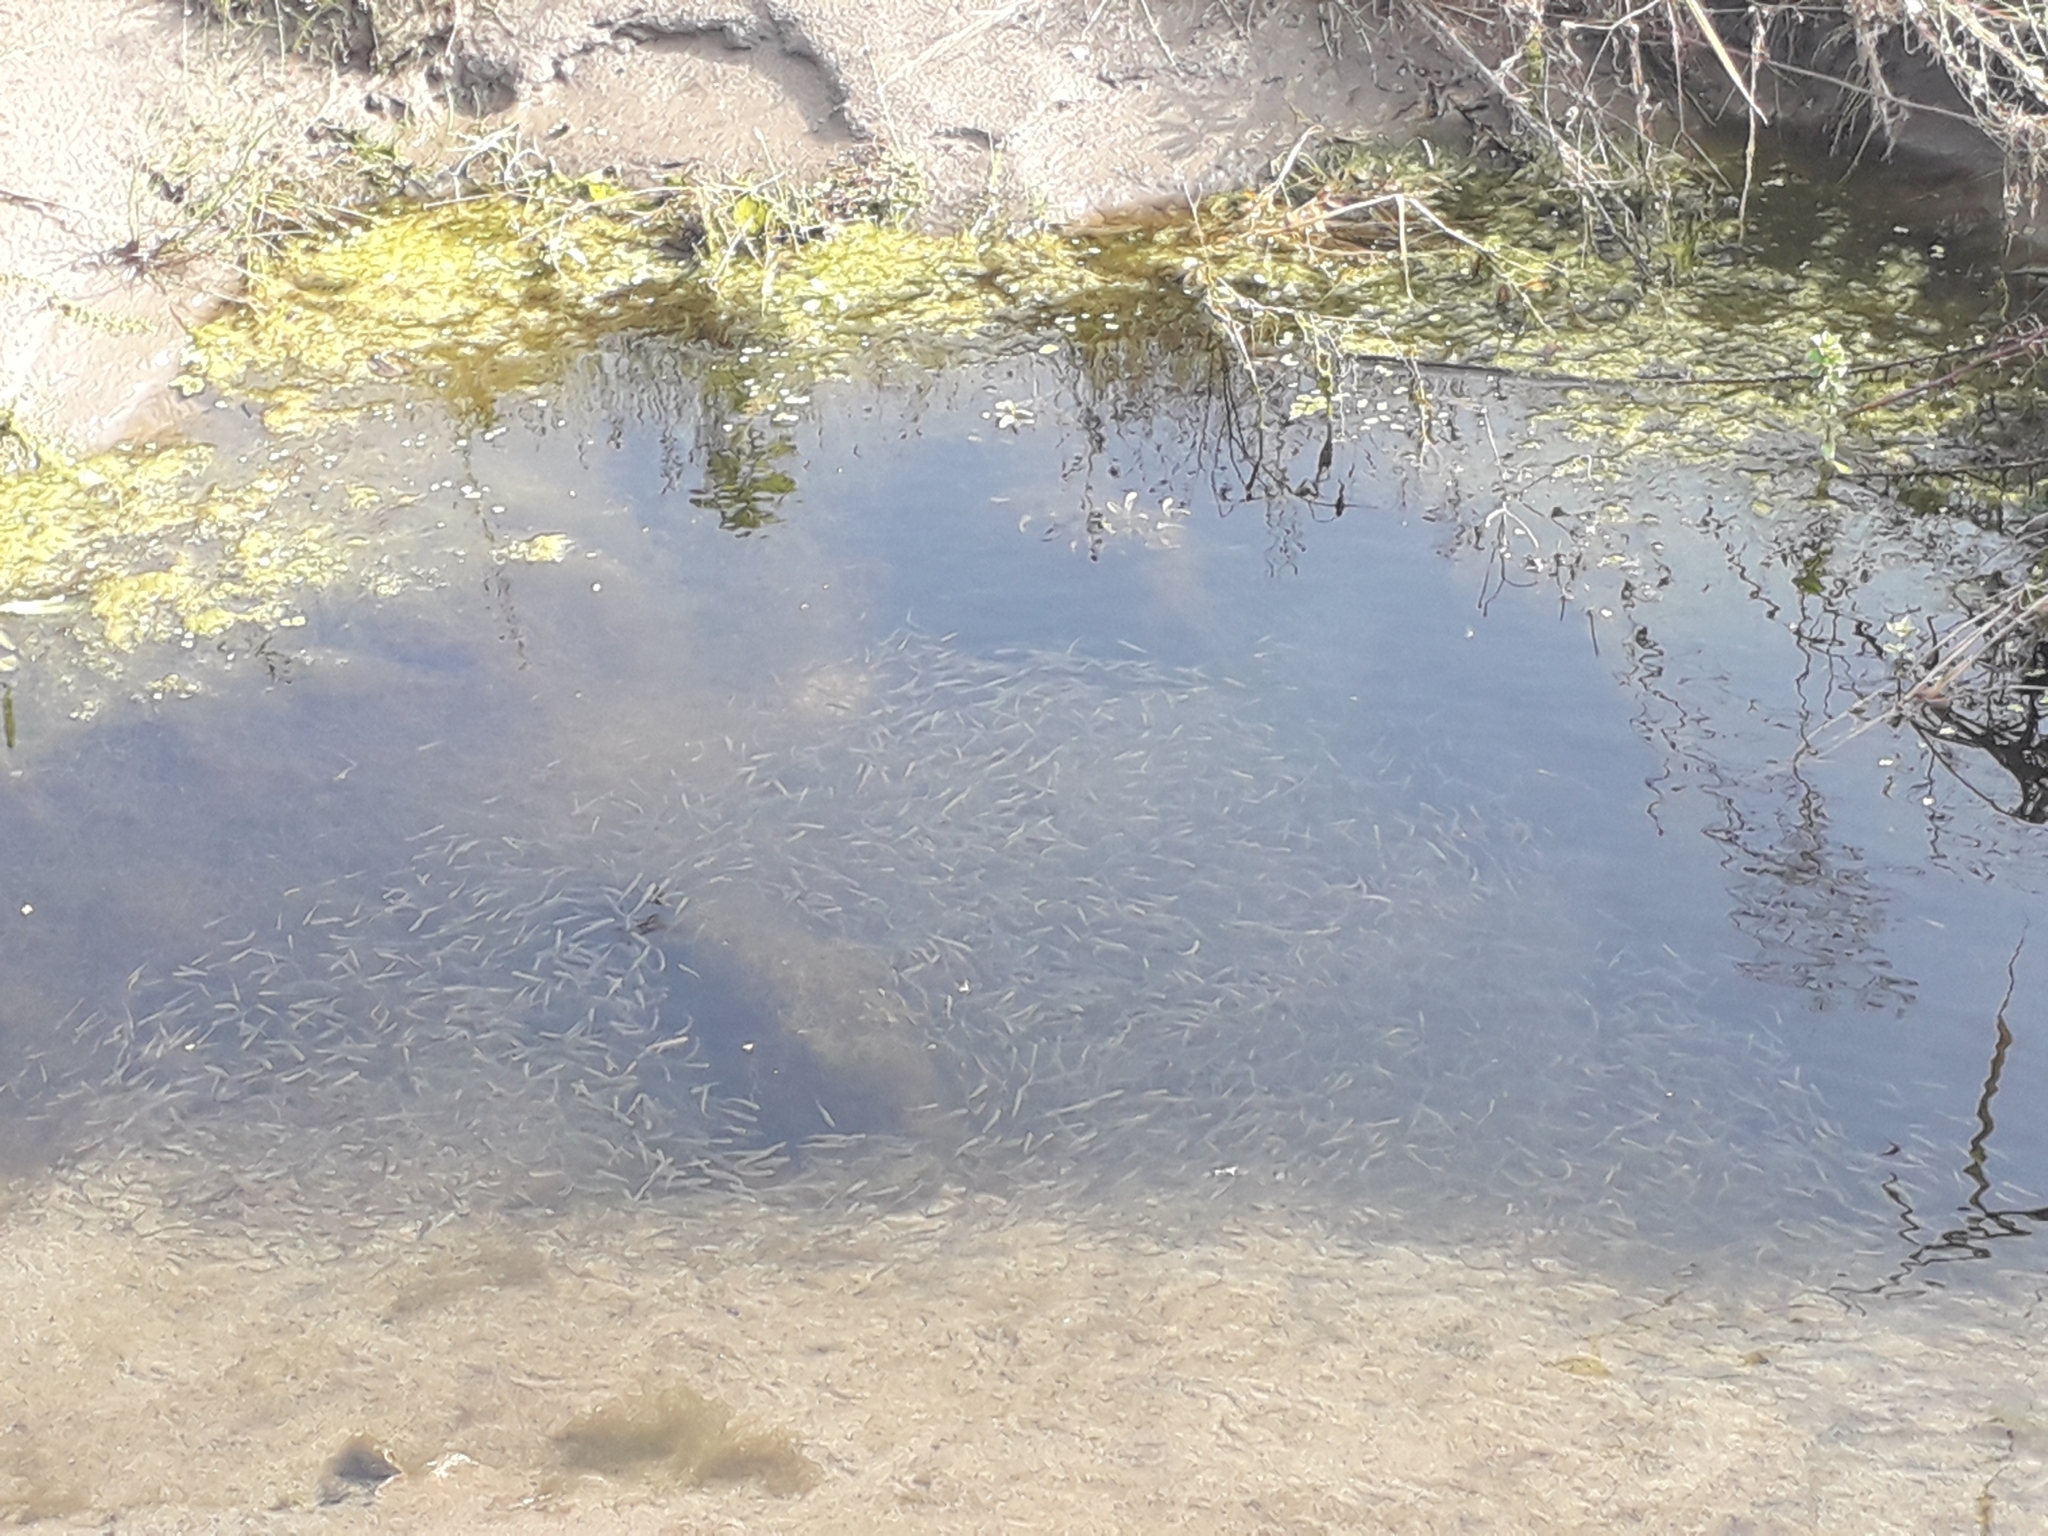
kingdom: Animalia
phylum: Chordata
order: Atheriniformes
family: Atherinidae
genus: Atherina
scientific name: Atherina boyeri
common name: Big-scale sand smelt
